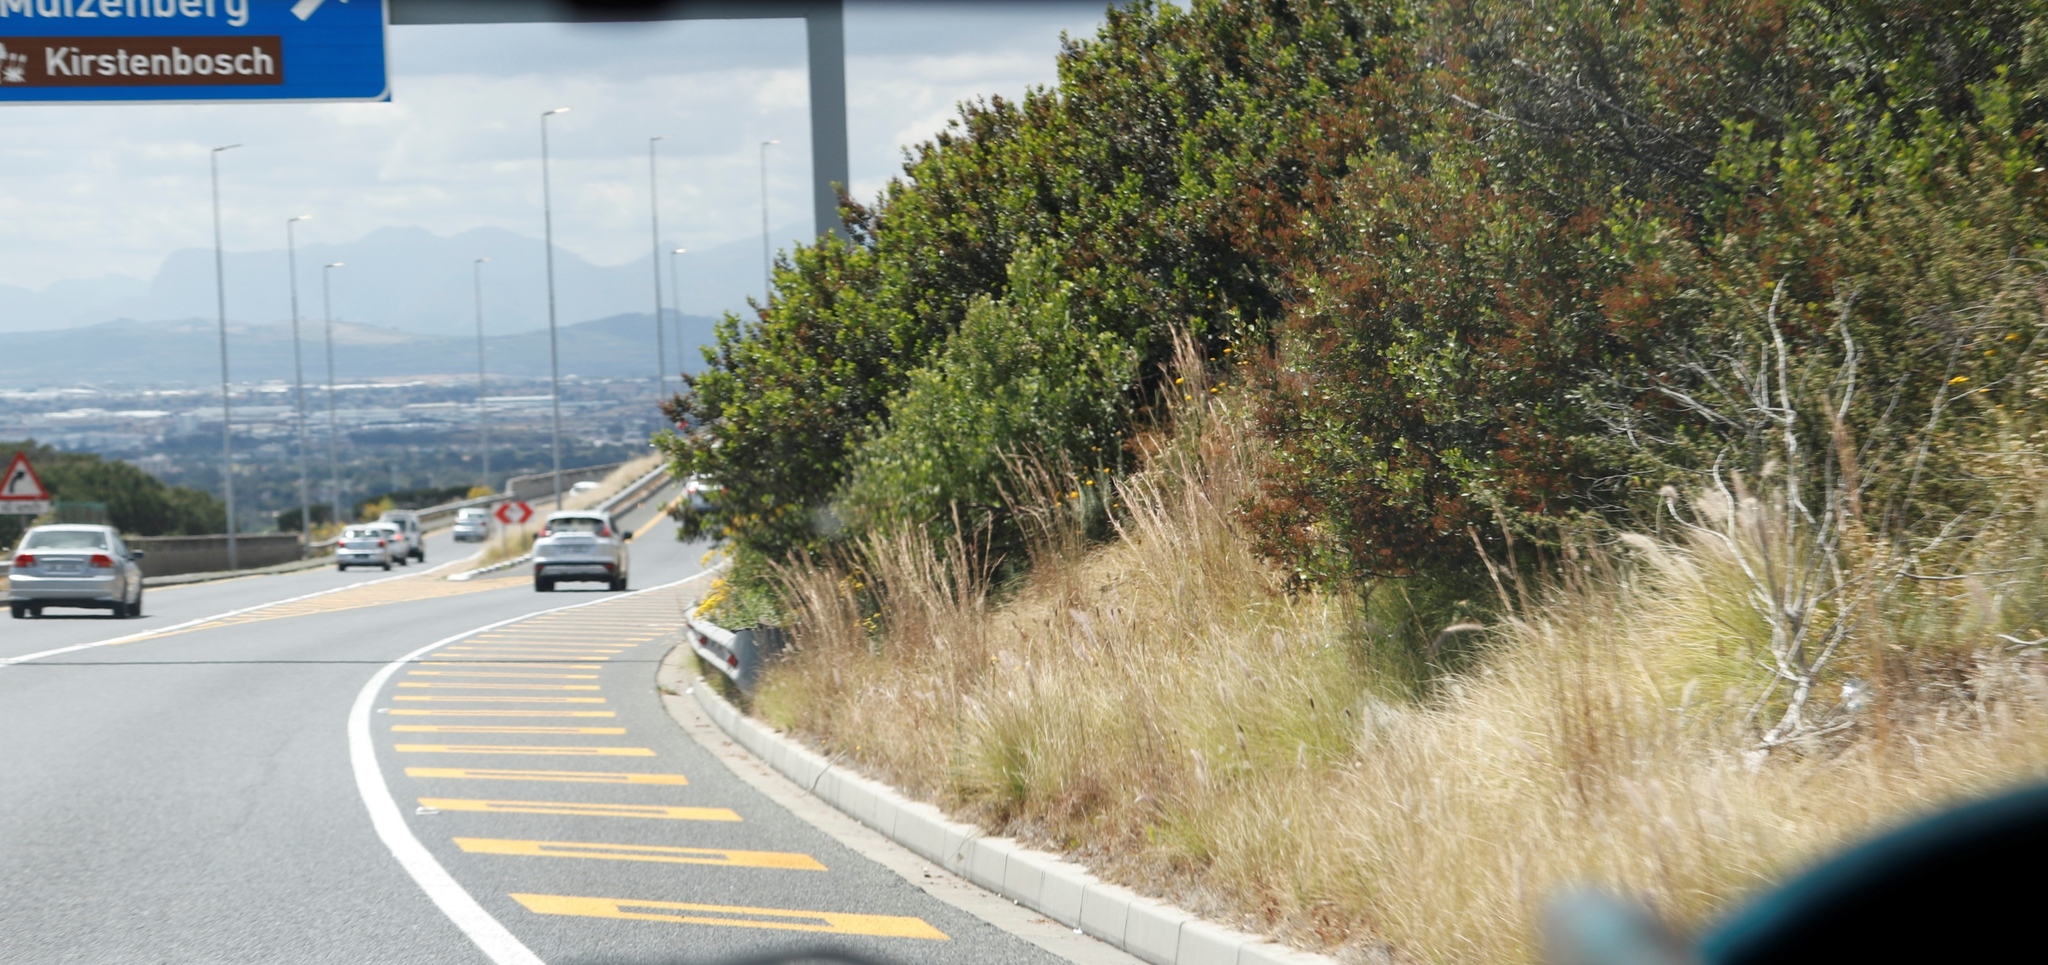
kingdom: Plantae
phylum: Tracheophyta
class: Liliopsida
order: Poales
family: Poaceae
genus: Hyparrhenia
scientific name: Hyparrhenia hirta
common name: Thatching grass
